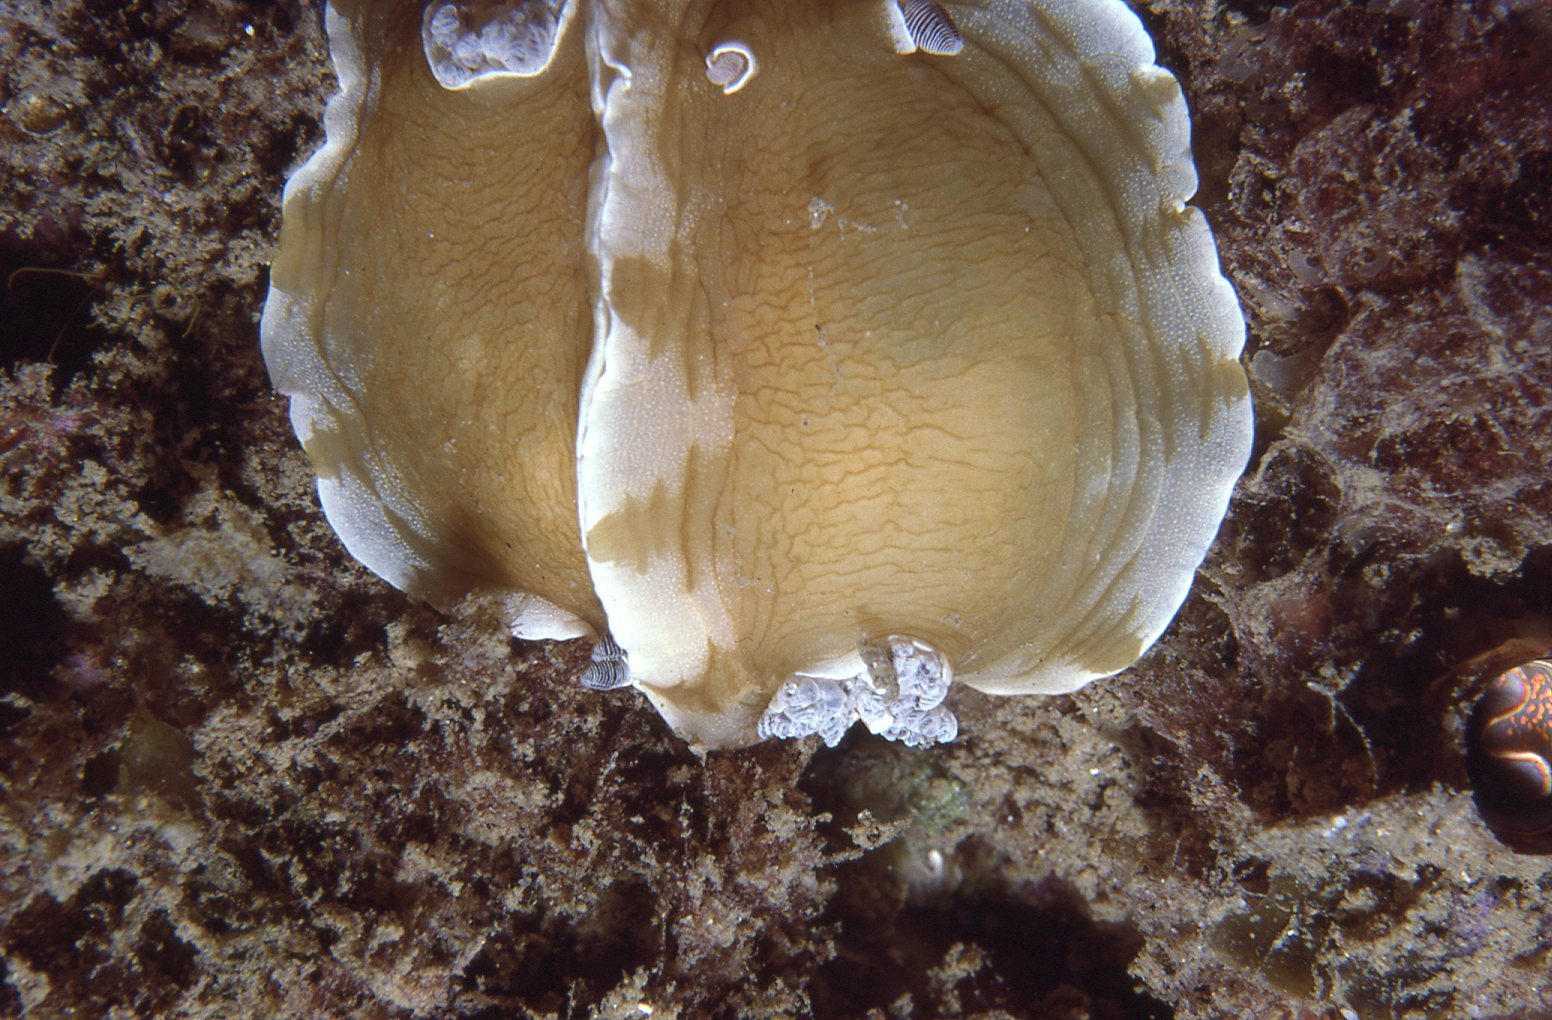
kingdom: Animalia
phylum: Mollusca
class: Gastropoda
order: Nudibranchia
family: Dorididae
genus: Aphelodoris
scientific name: Aphelodoris varia
